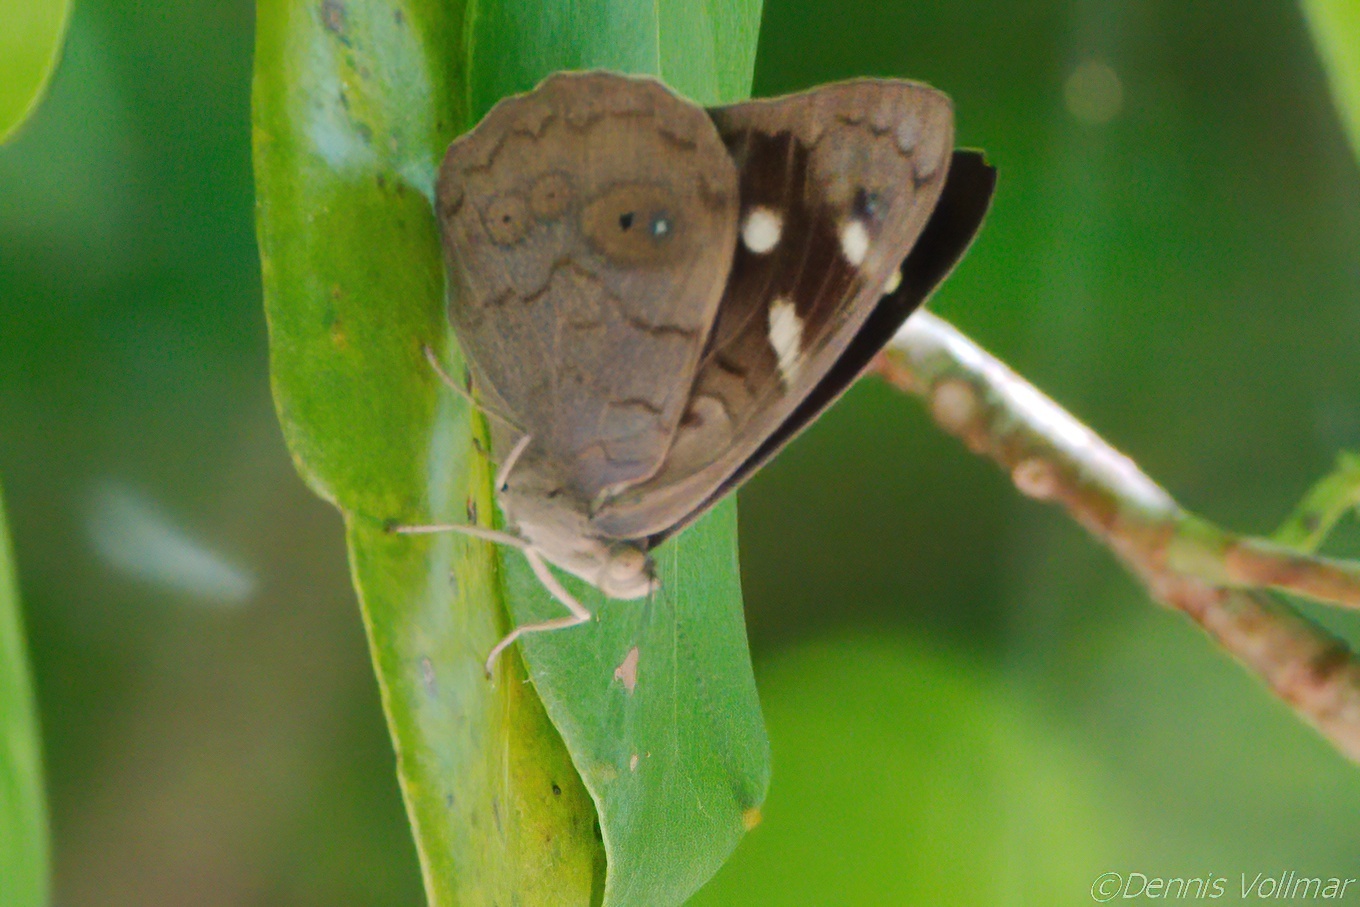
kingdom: Animalia
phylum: Arthropoda
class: Insecta
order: Lepidoptera
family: Nymphalidae
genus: Eunica
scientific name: Eunica monima
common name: Dingy purplewing
